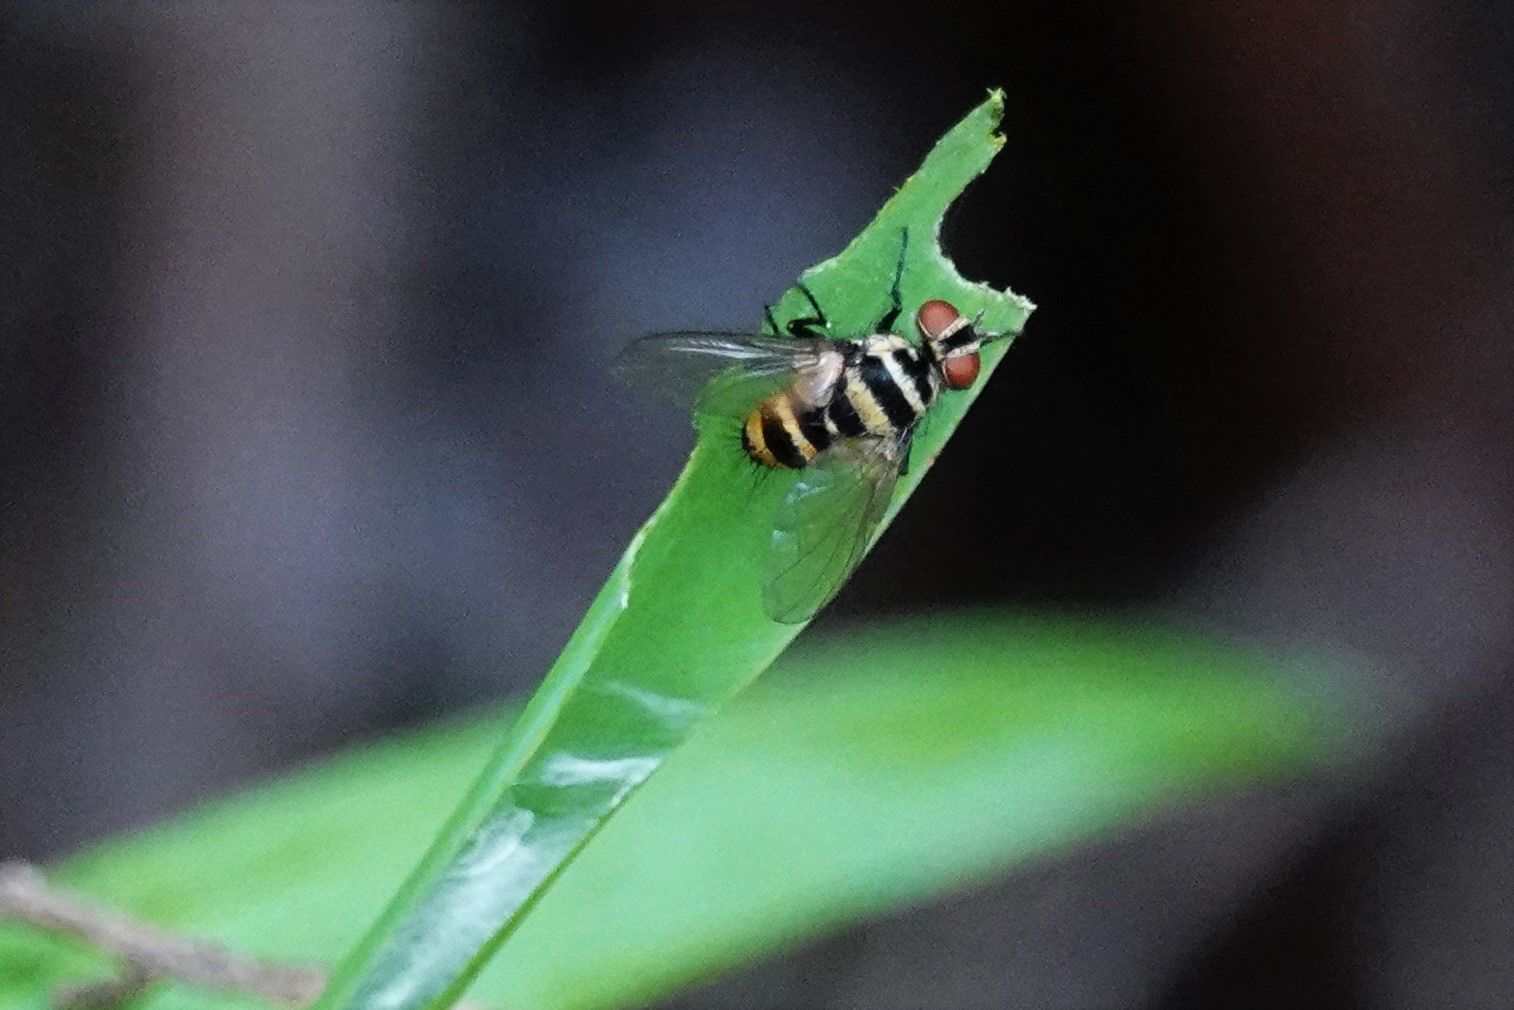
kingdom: Animalia
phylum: Arthropoda
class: Insecta
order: Diptera
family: Tachinidae
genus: Trigonospila
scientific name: Trigonospila brevifacies
